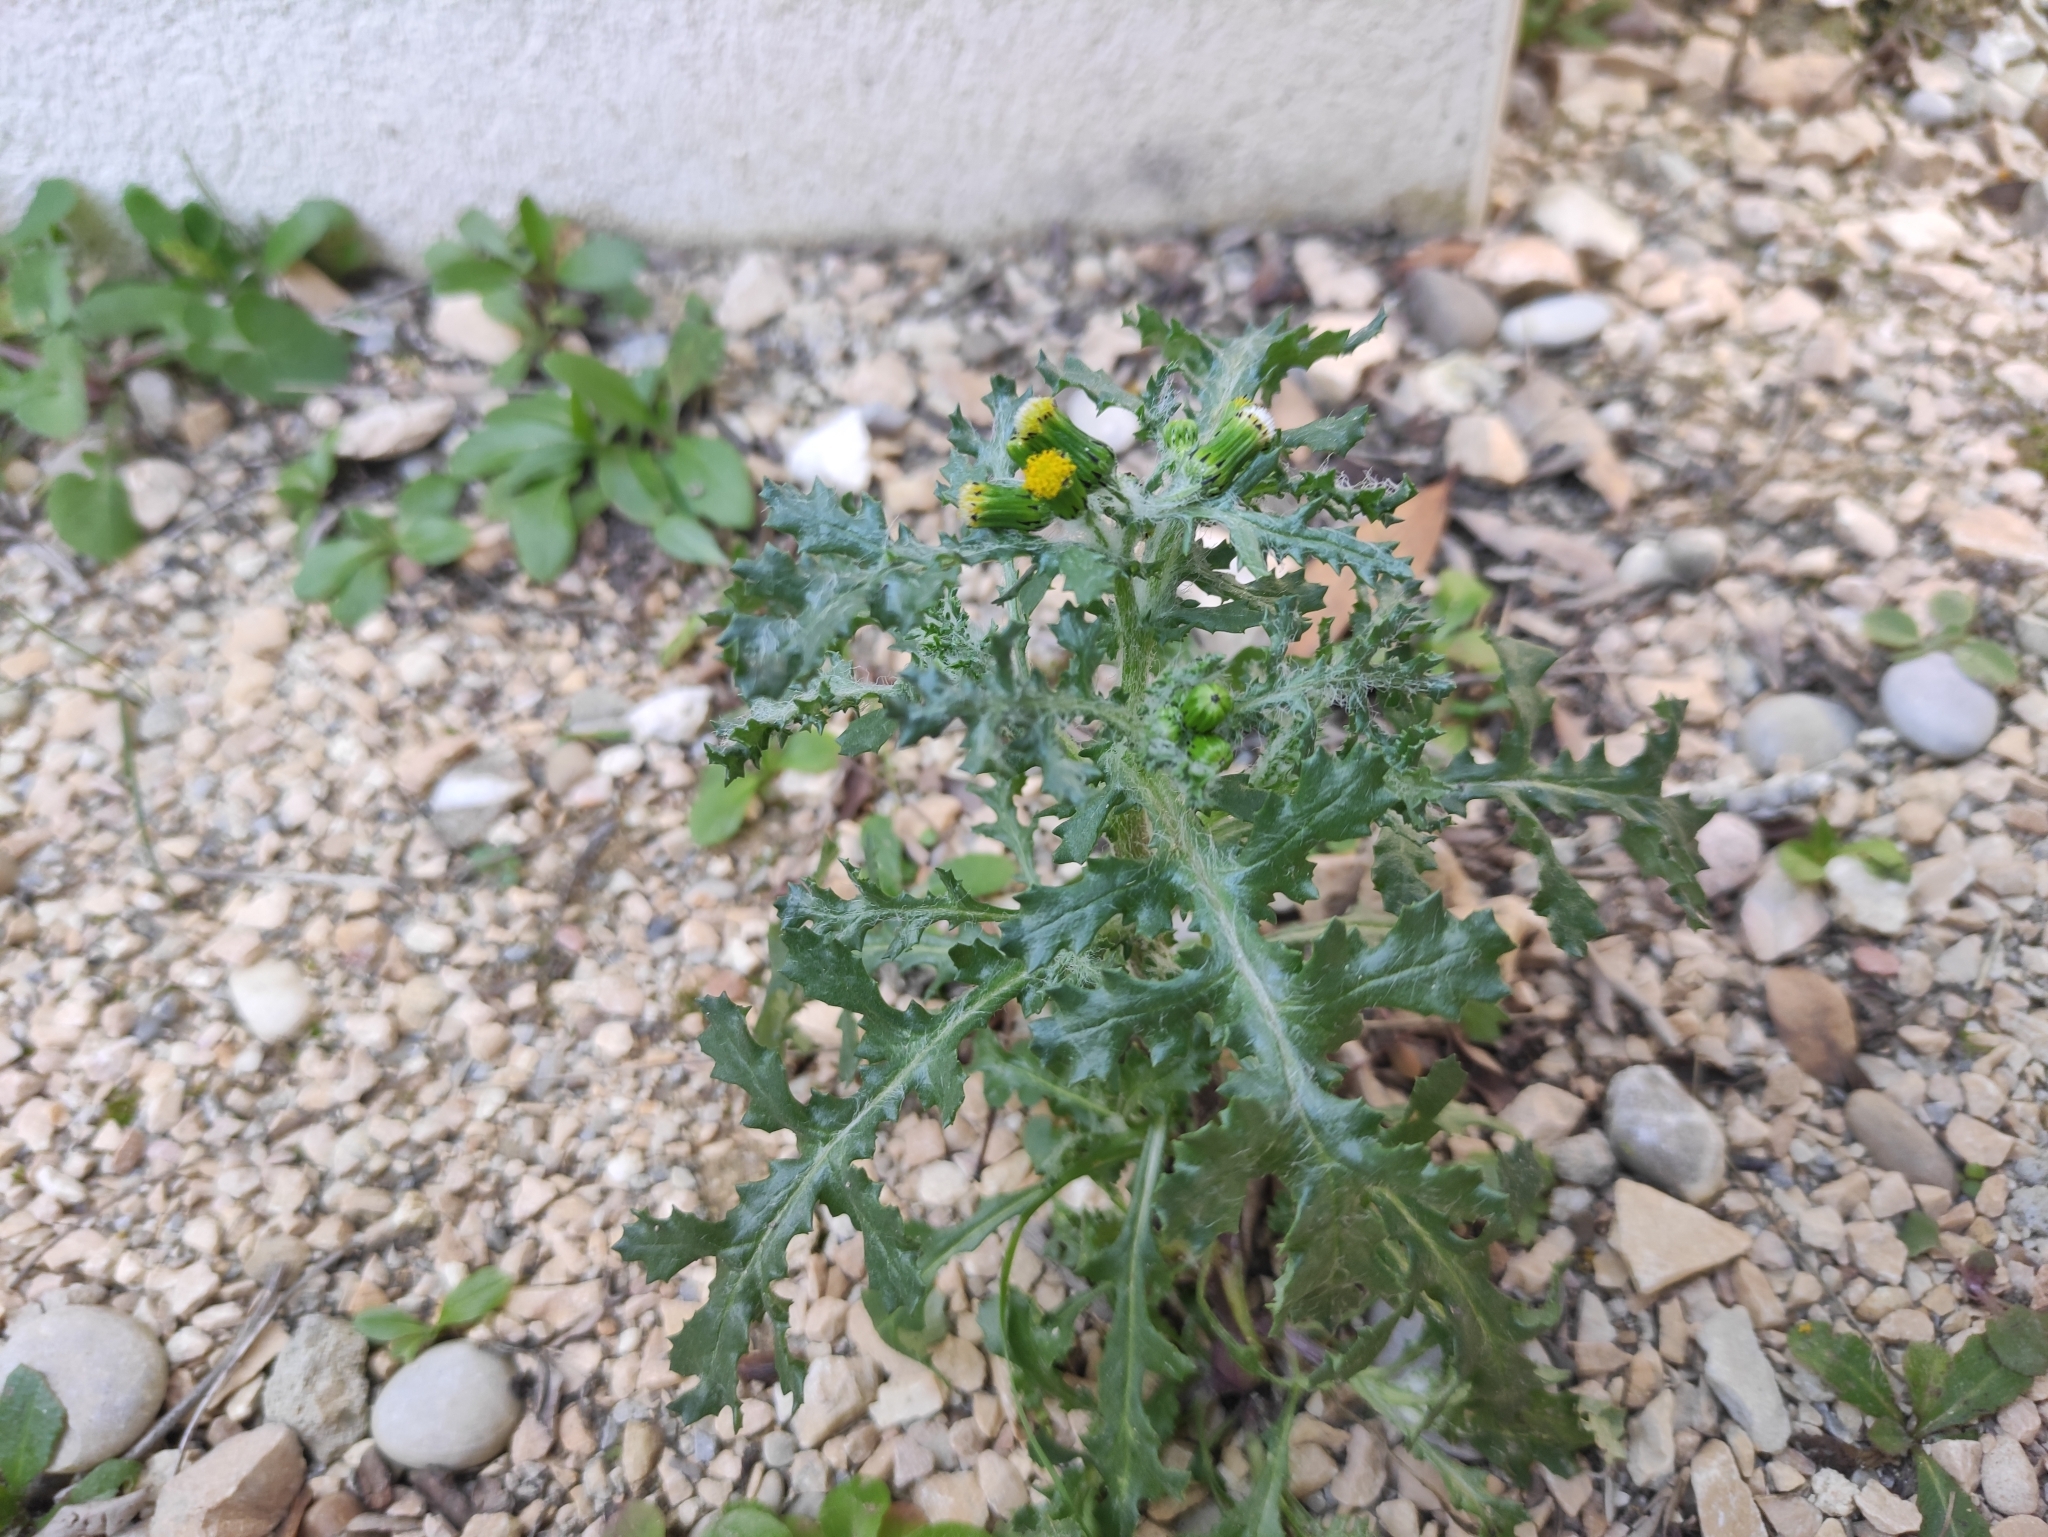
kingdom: Plantae
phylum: Tracheophyta
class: Magnoliopsida
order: Asterales
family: Asteraceae
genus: Senecio
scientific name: Senecio vulgaris
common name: Old-man-in-the-spring
